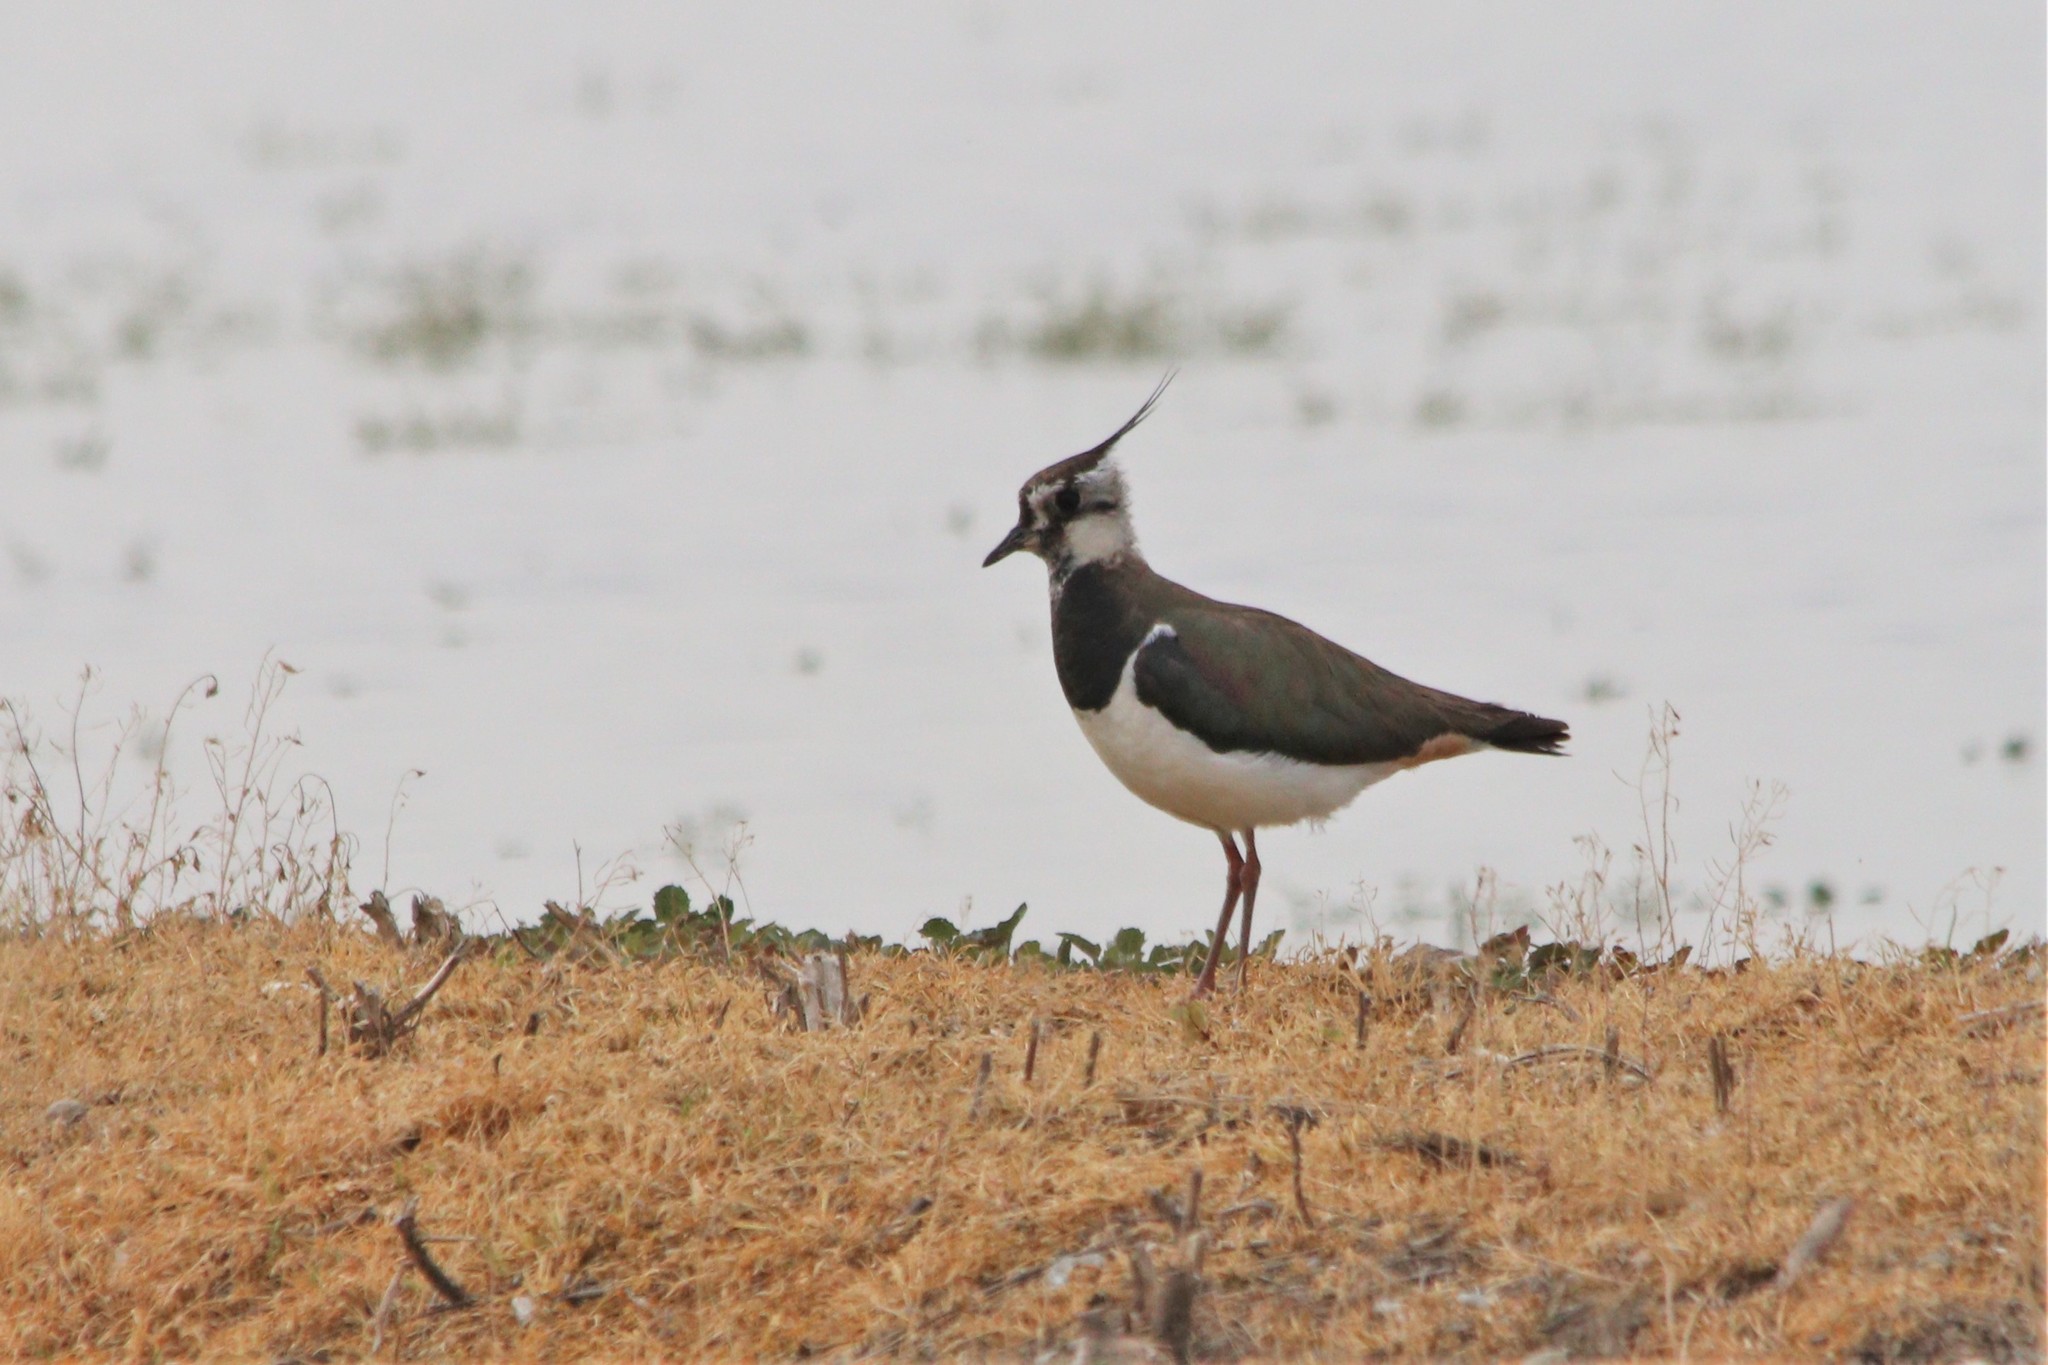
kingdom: Animalia
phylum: Chordata
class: Aves
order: Charadriiformes
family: Charadriidae
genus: Vanellus
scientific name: Vanellus vanellus
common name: Northern lapwing
